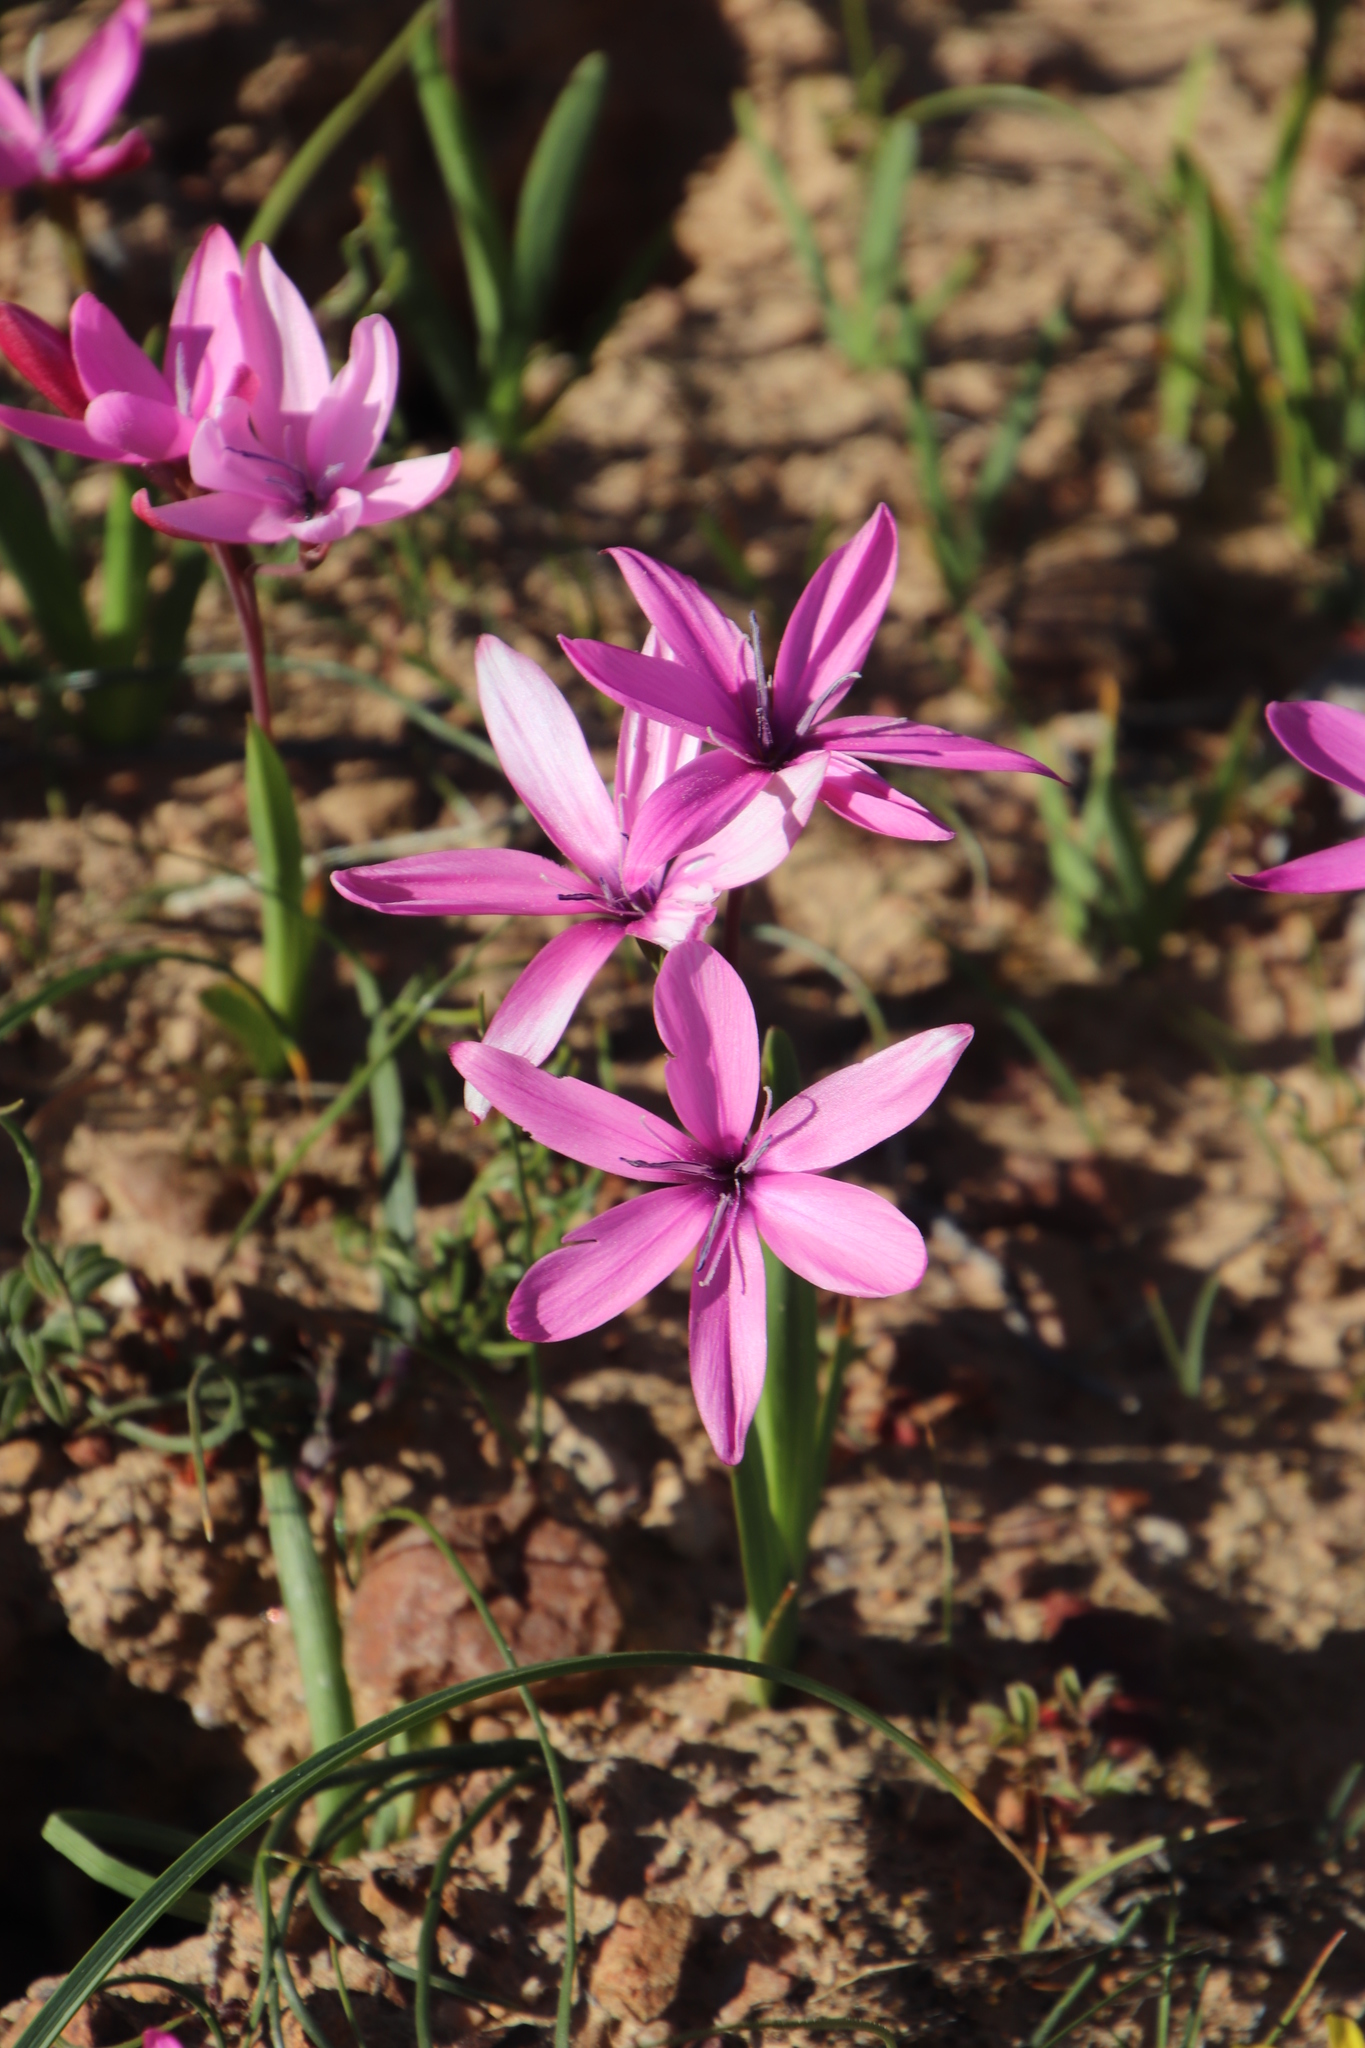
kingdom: Plantae
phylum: Tracheophyta
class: Liliopsida
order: Asparagales
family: Iridaceae
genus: Hesperantha
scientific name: Hesperantha pauciflora
